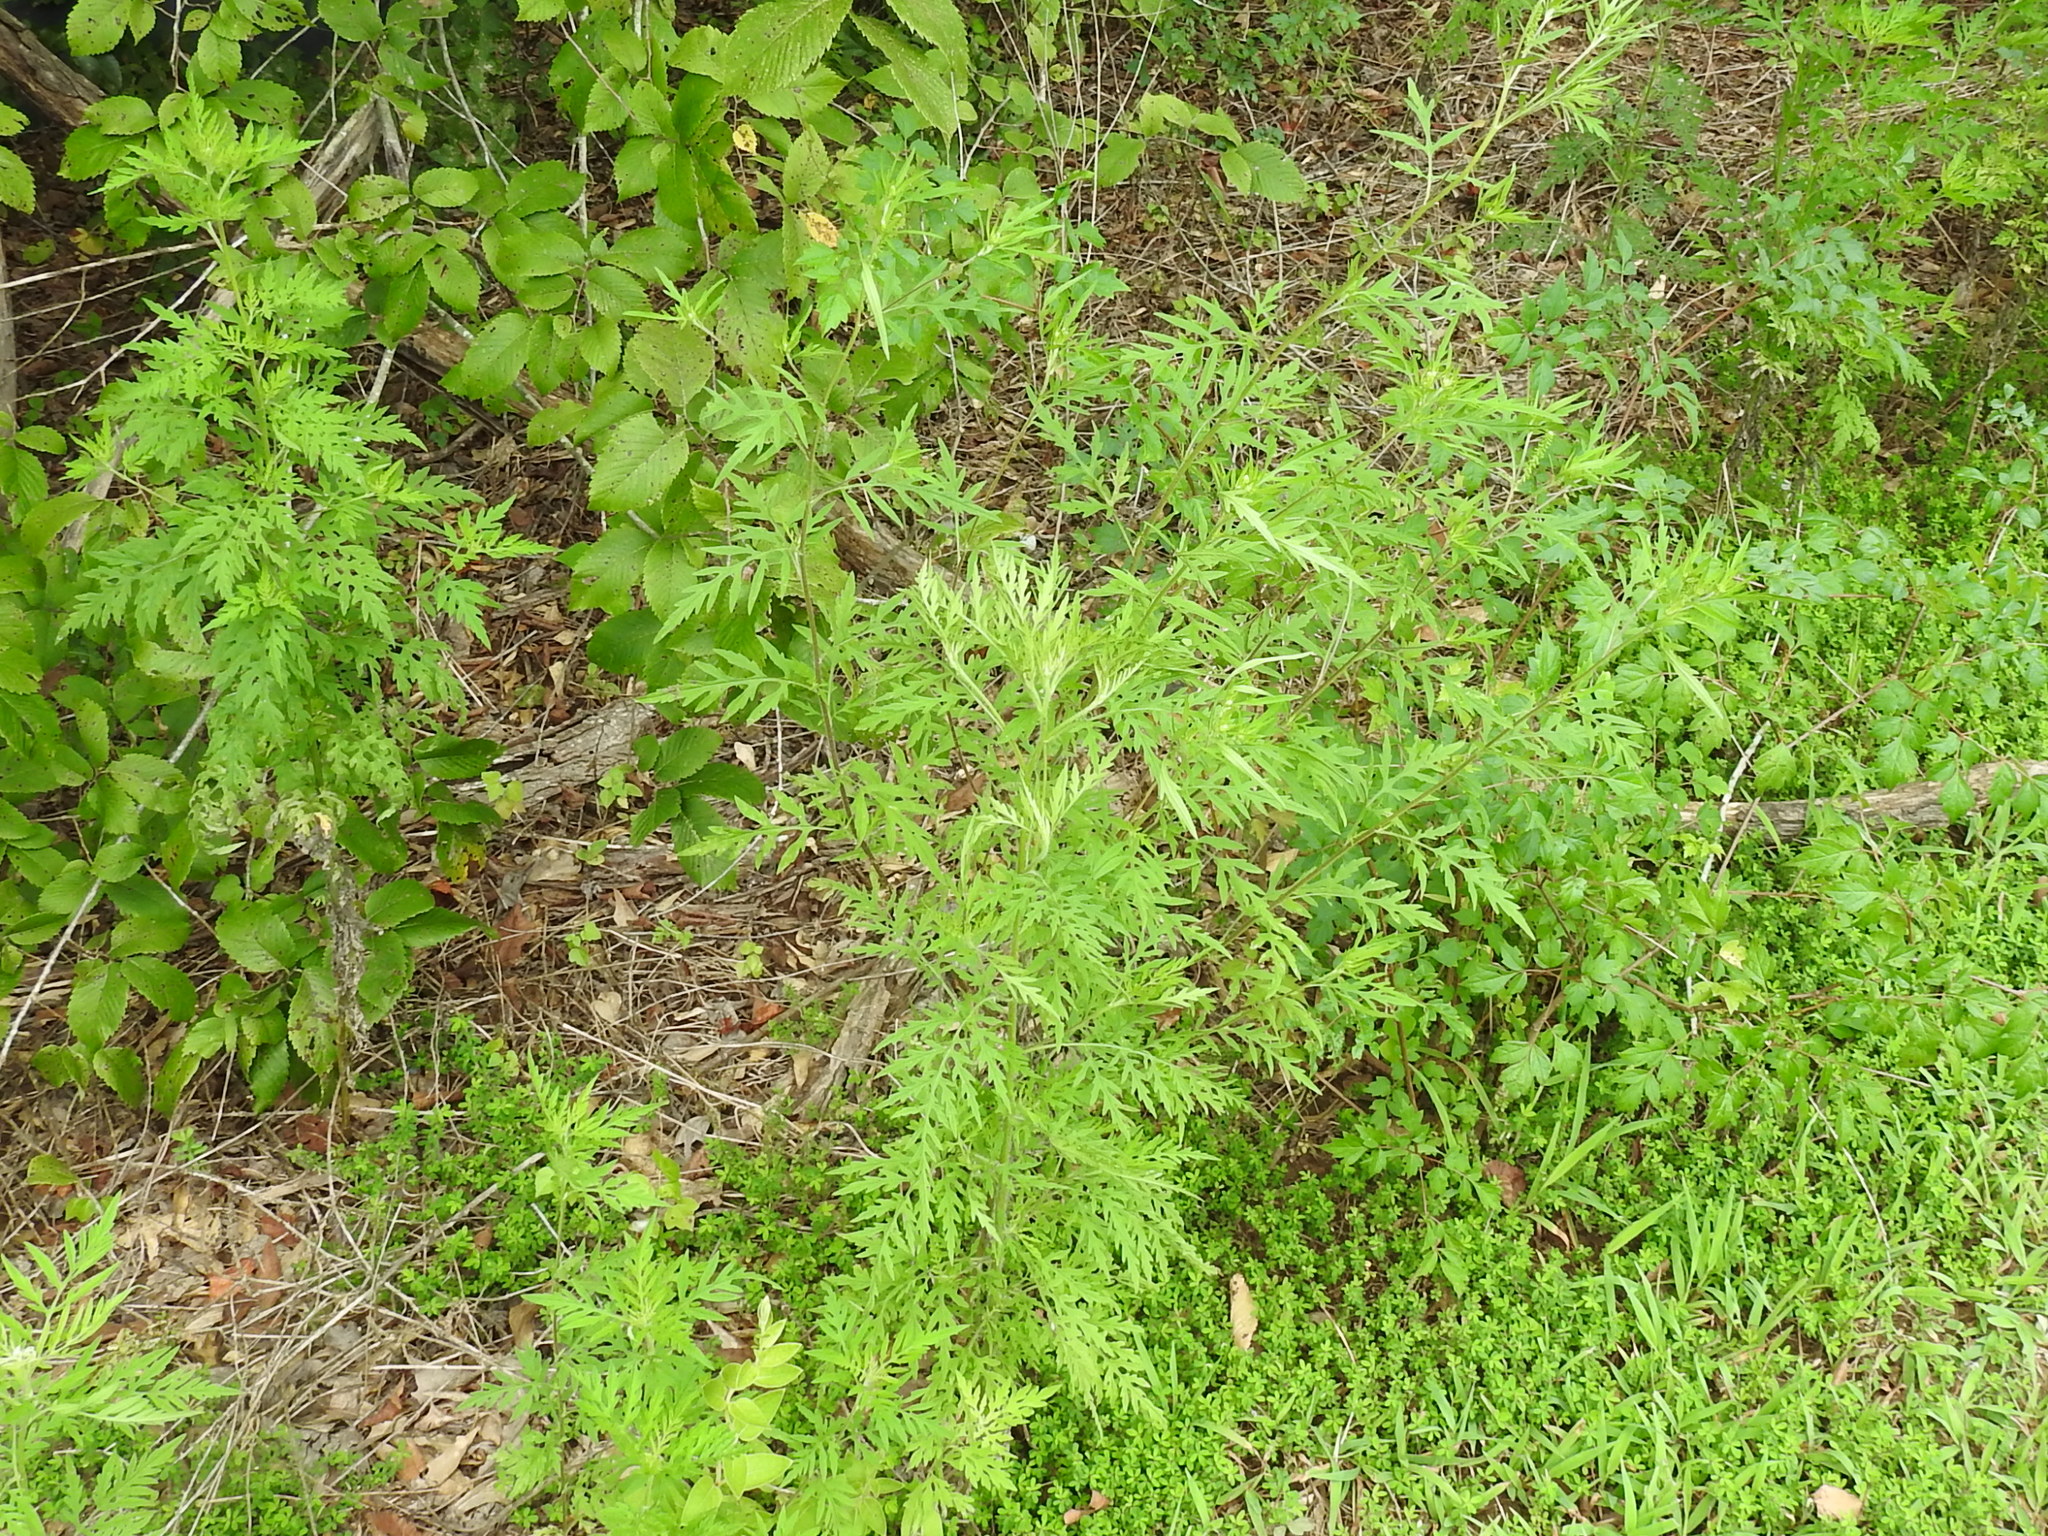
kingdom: Plantae
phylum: Tracheophyta
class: Magnoliopsida
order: Asterales
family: Asteraceae
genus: Ambrosia
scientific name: Ambrosia artemisiifolia
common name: Annual ragweed
